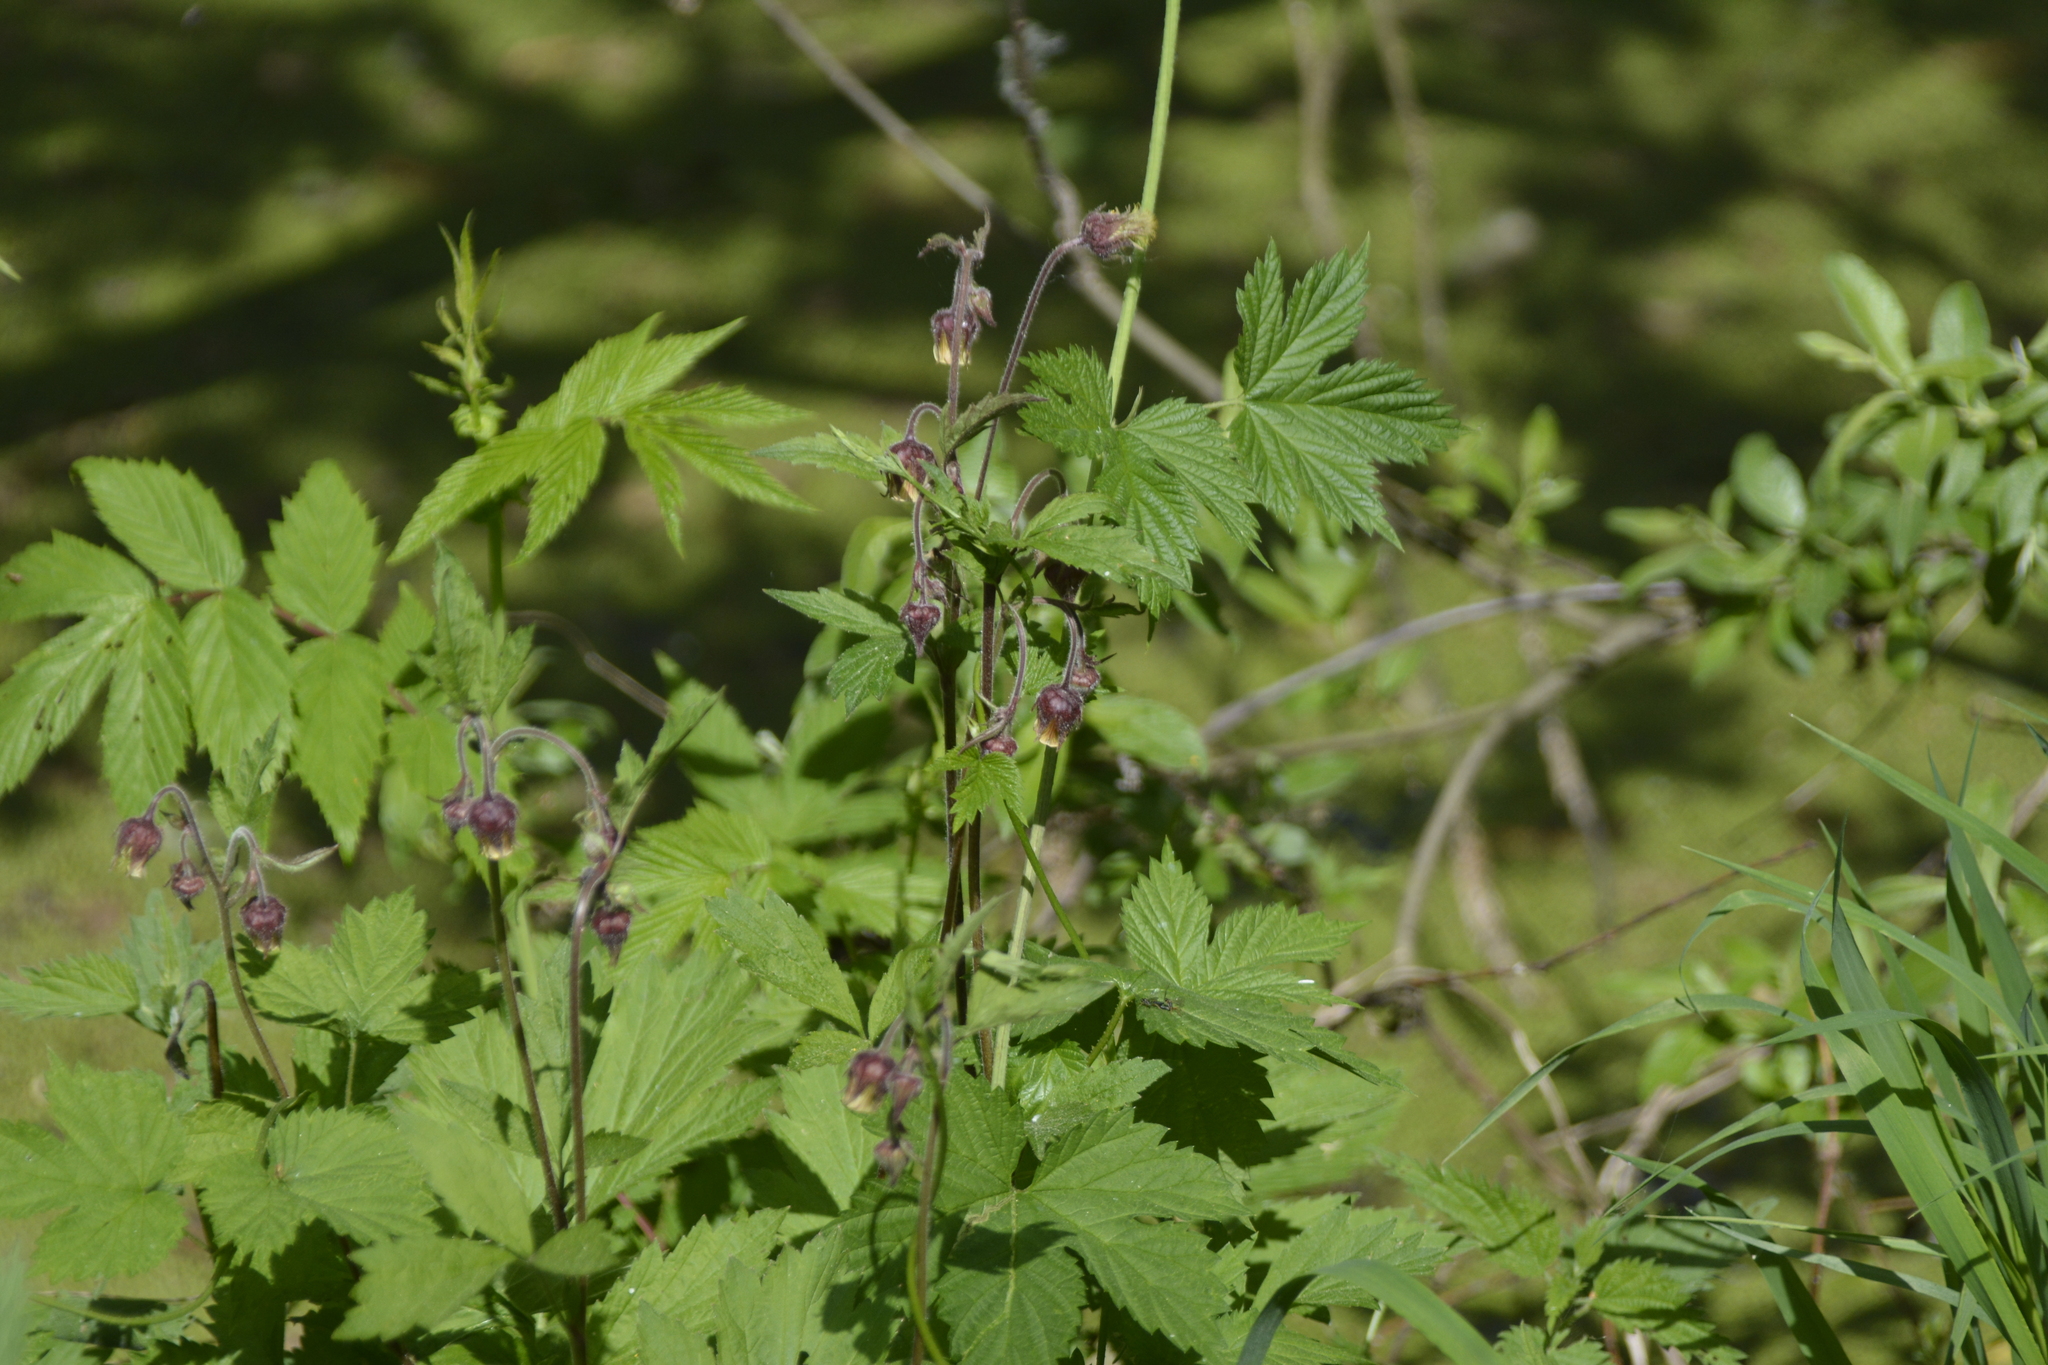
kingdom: Plantae
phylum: Tracheophyta
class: Magnoliopsida
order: Rosales
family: Rosaceae
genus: Geum
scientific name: Geum rivale
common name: Water avens
